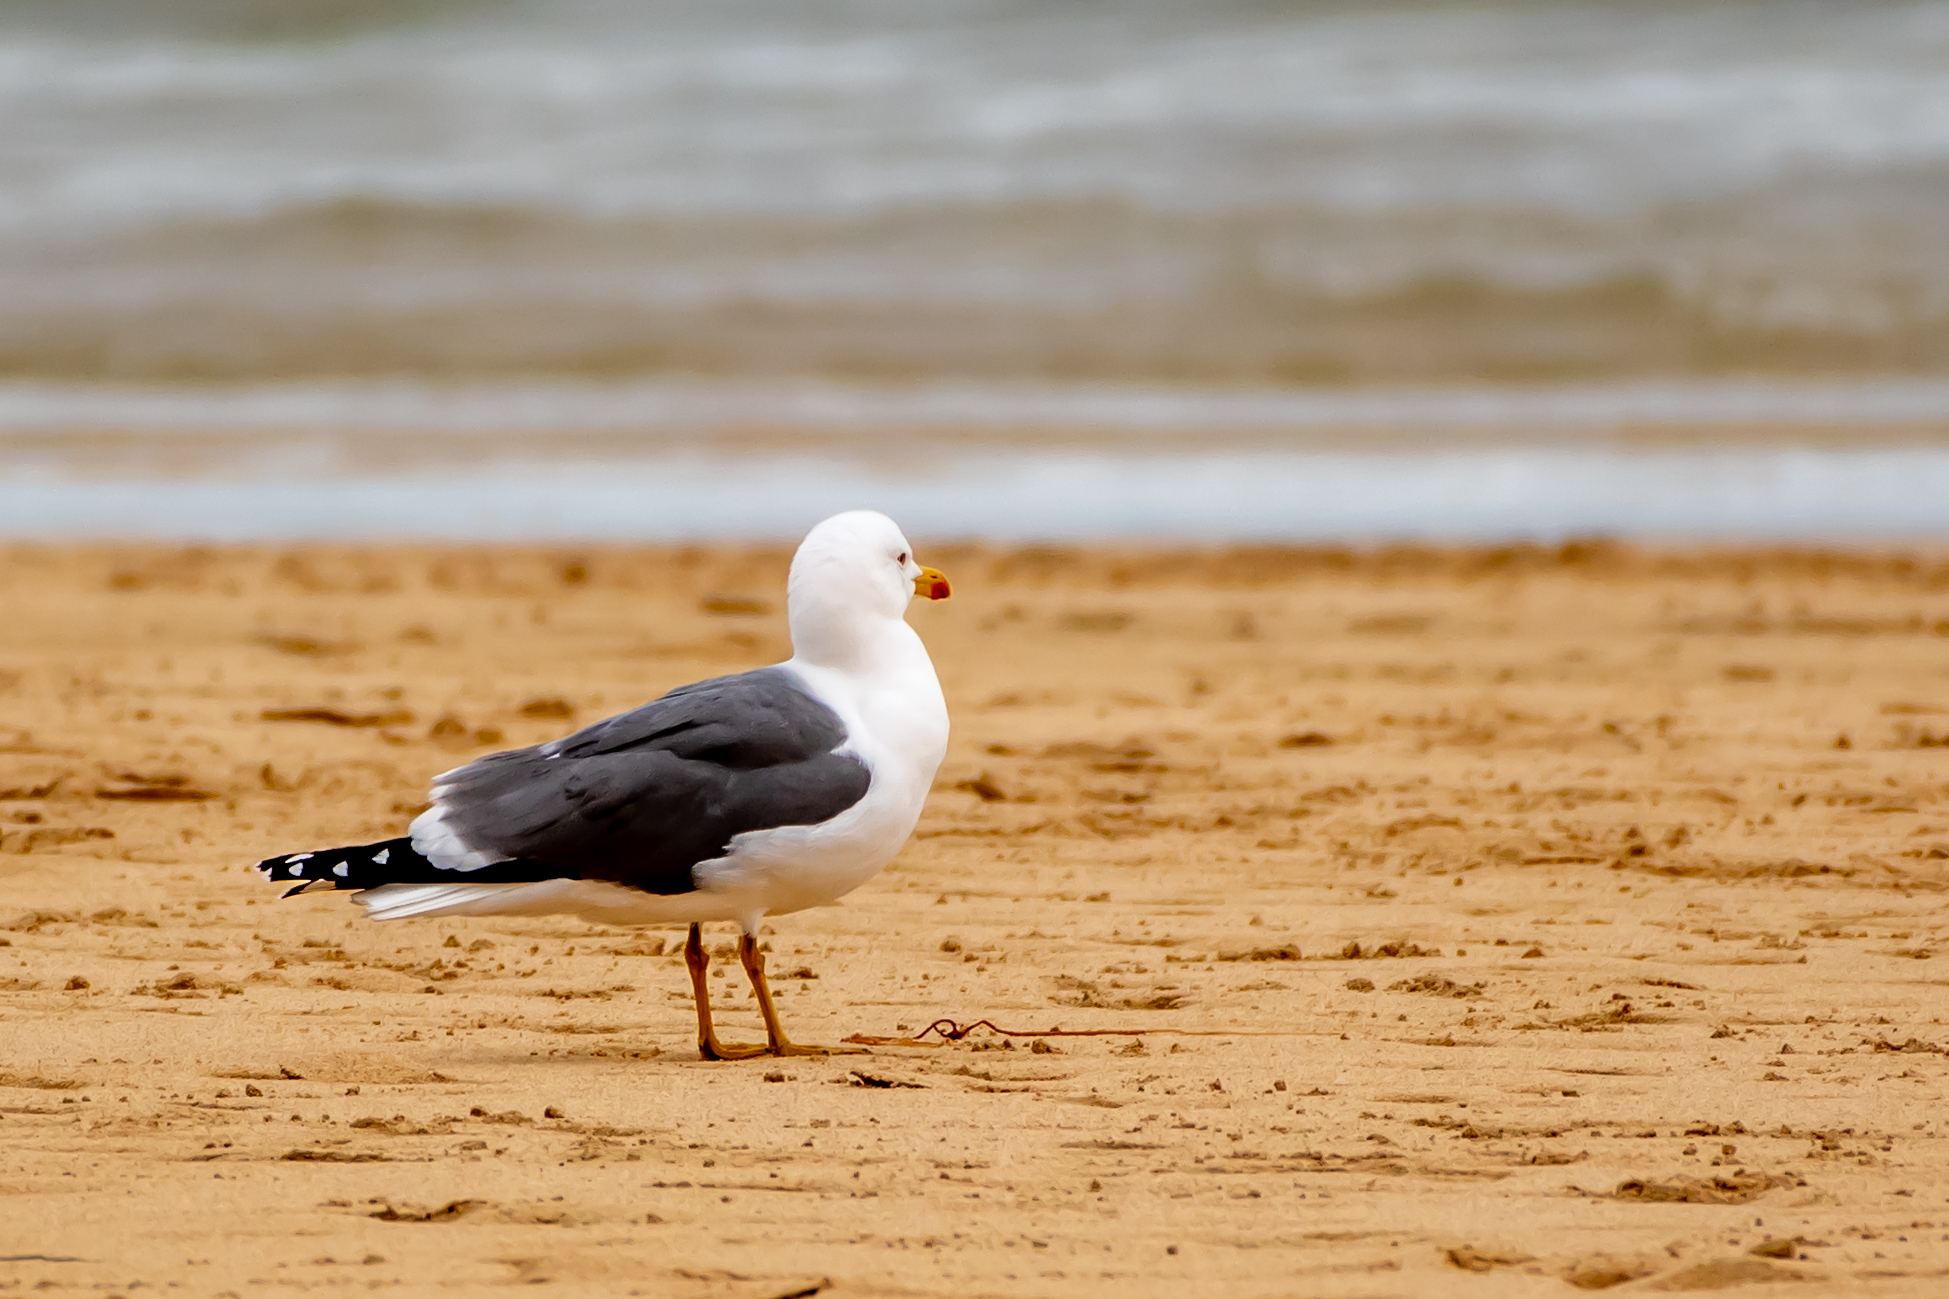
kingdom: Animalia
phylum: Chordata
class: Aves
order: Charadriiformes
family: Laridae
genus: Larus
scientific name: Larus fuscus
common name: Lesser black-backed gull
